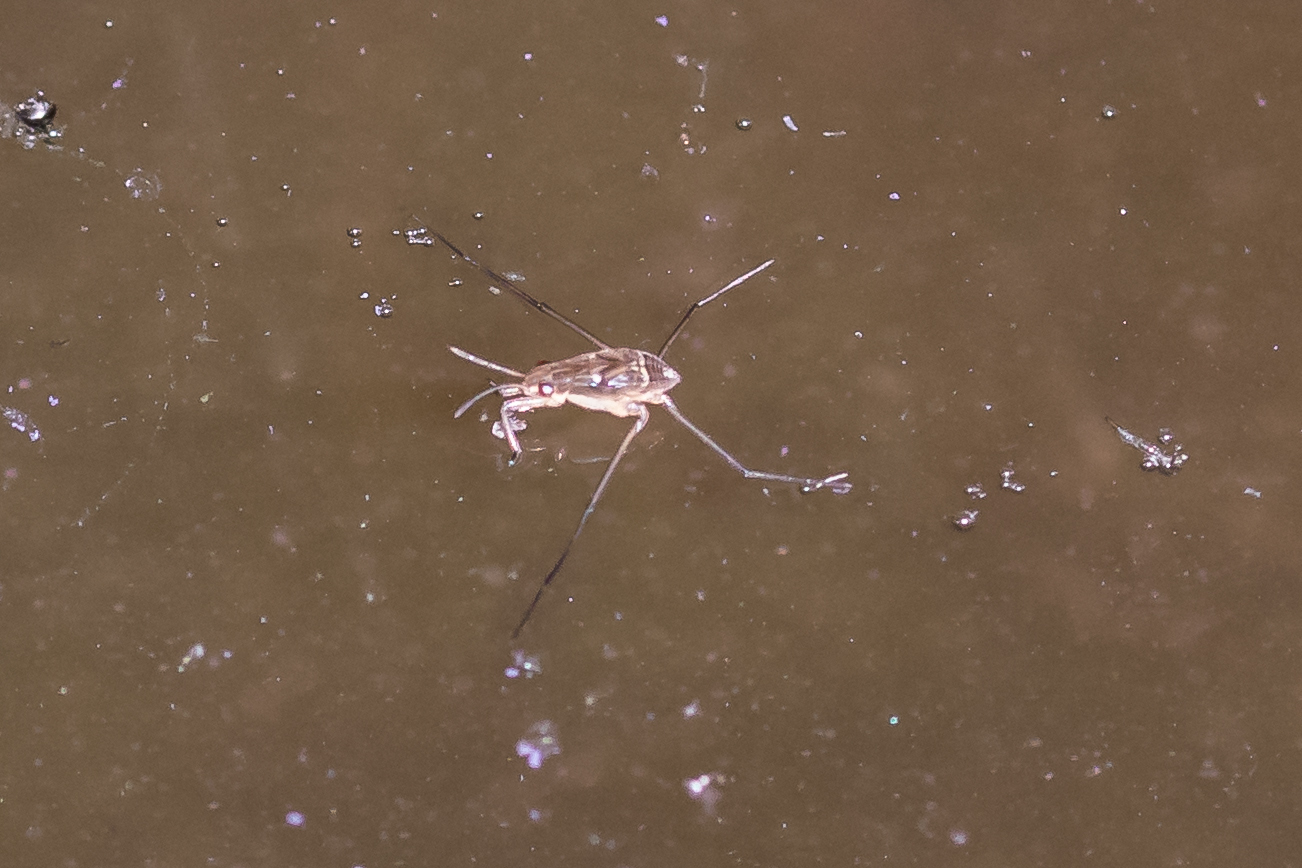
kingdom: Animalia
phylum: Arthropoda
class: Insecta
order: Hemiptera
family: Gerridae
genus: Aquarius
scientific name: Aquarius paludum
